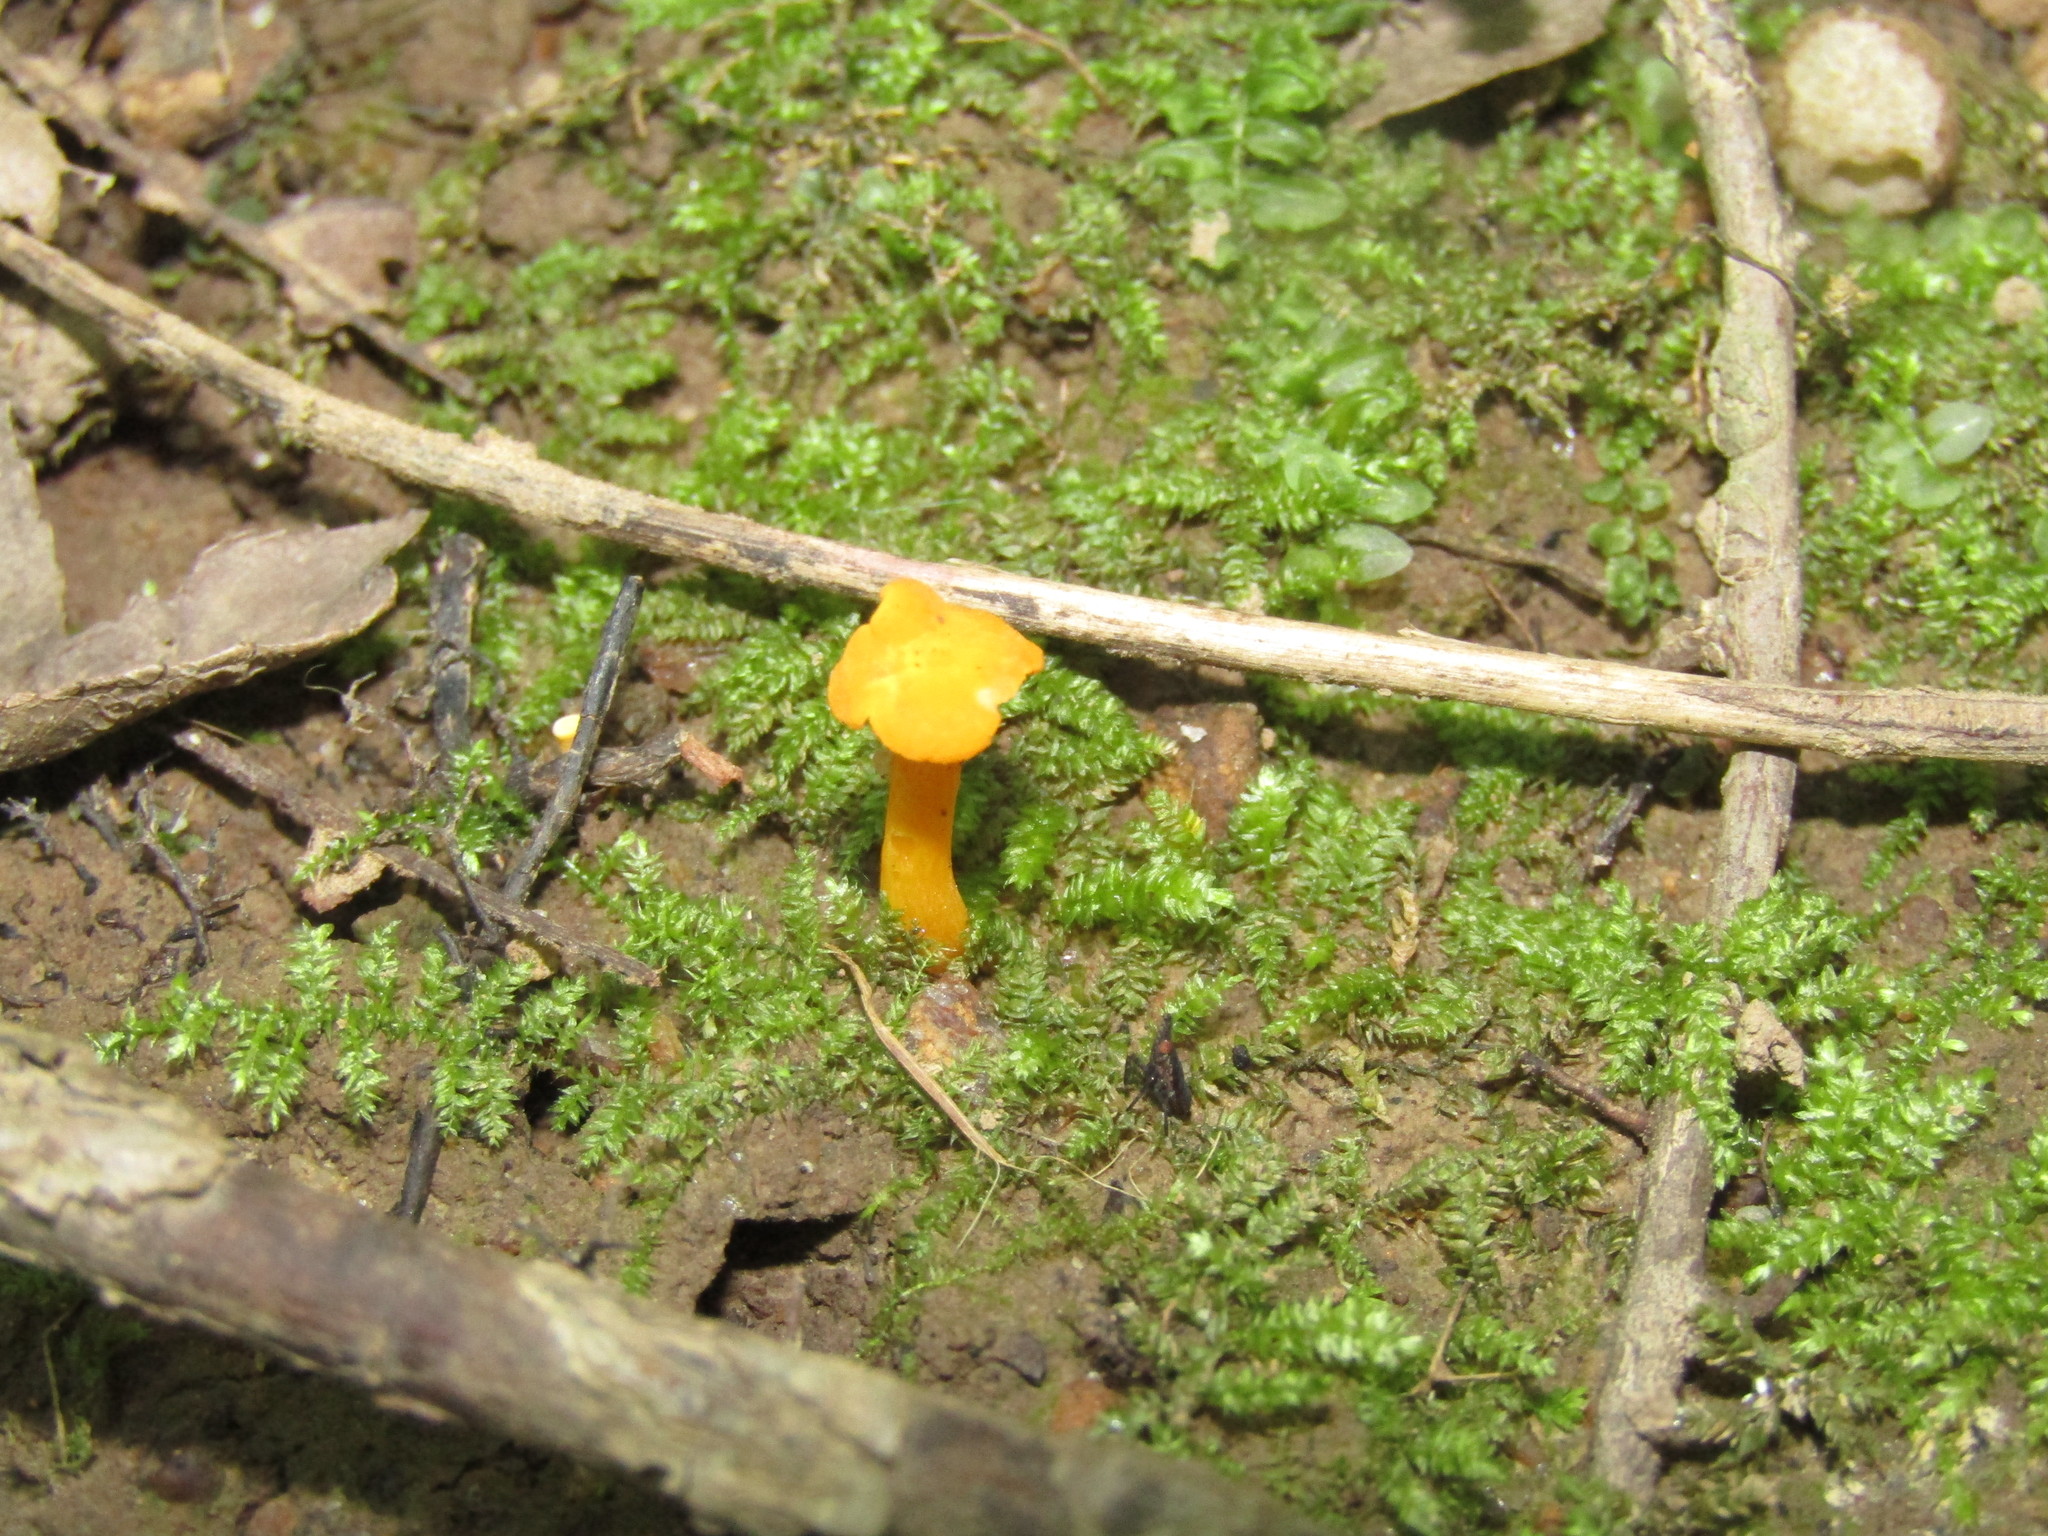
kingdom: Fungi
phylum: Basidiomycota
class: Agaricomycetes
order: Cantharellales
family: Hydnaceae
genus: Cantharellus
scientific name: Cantharellus minor
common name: Small chanterelle
